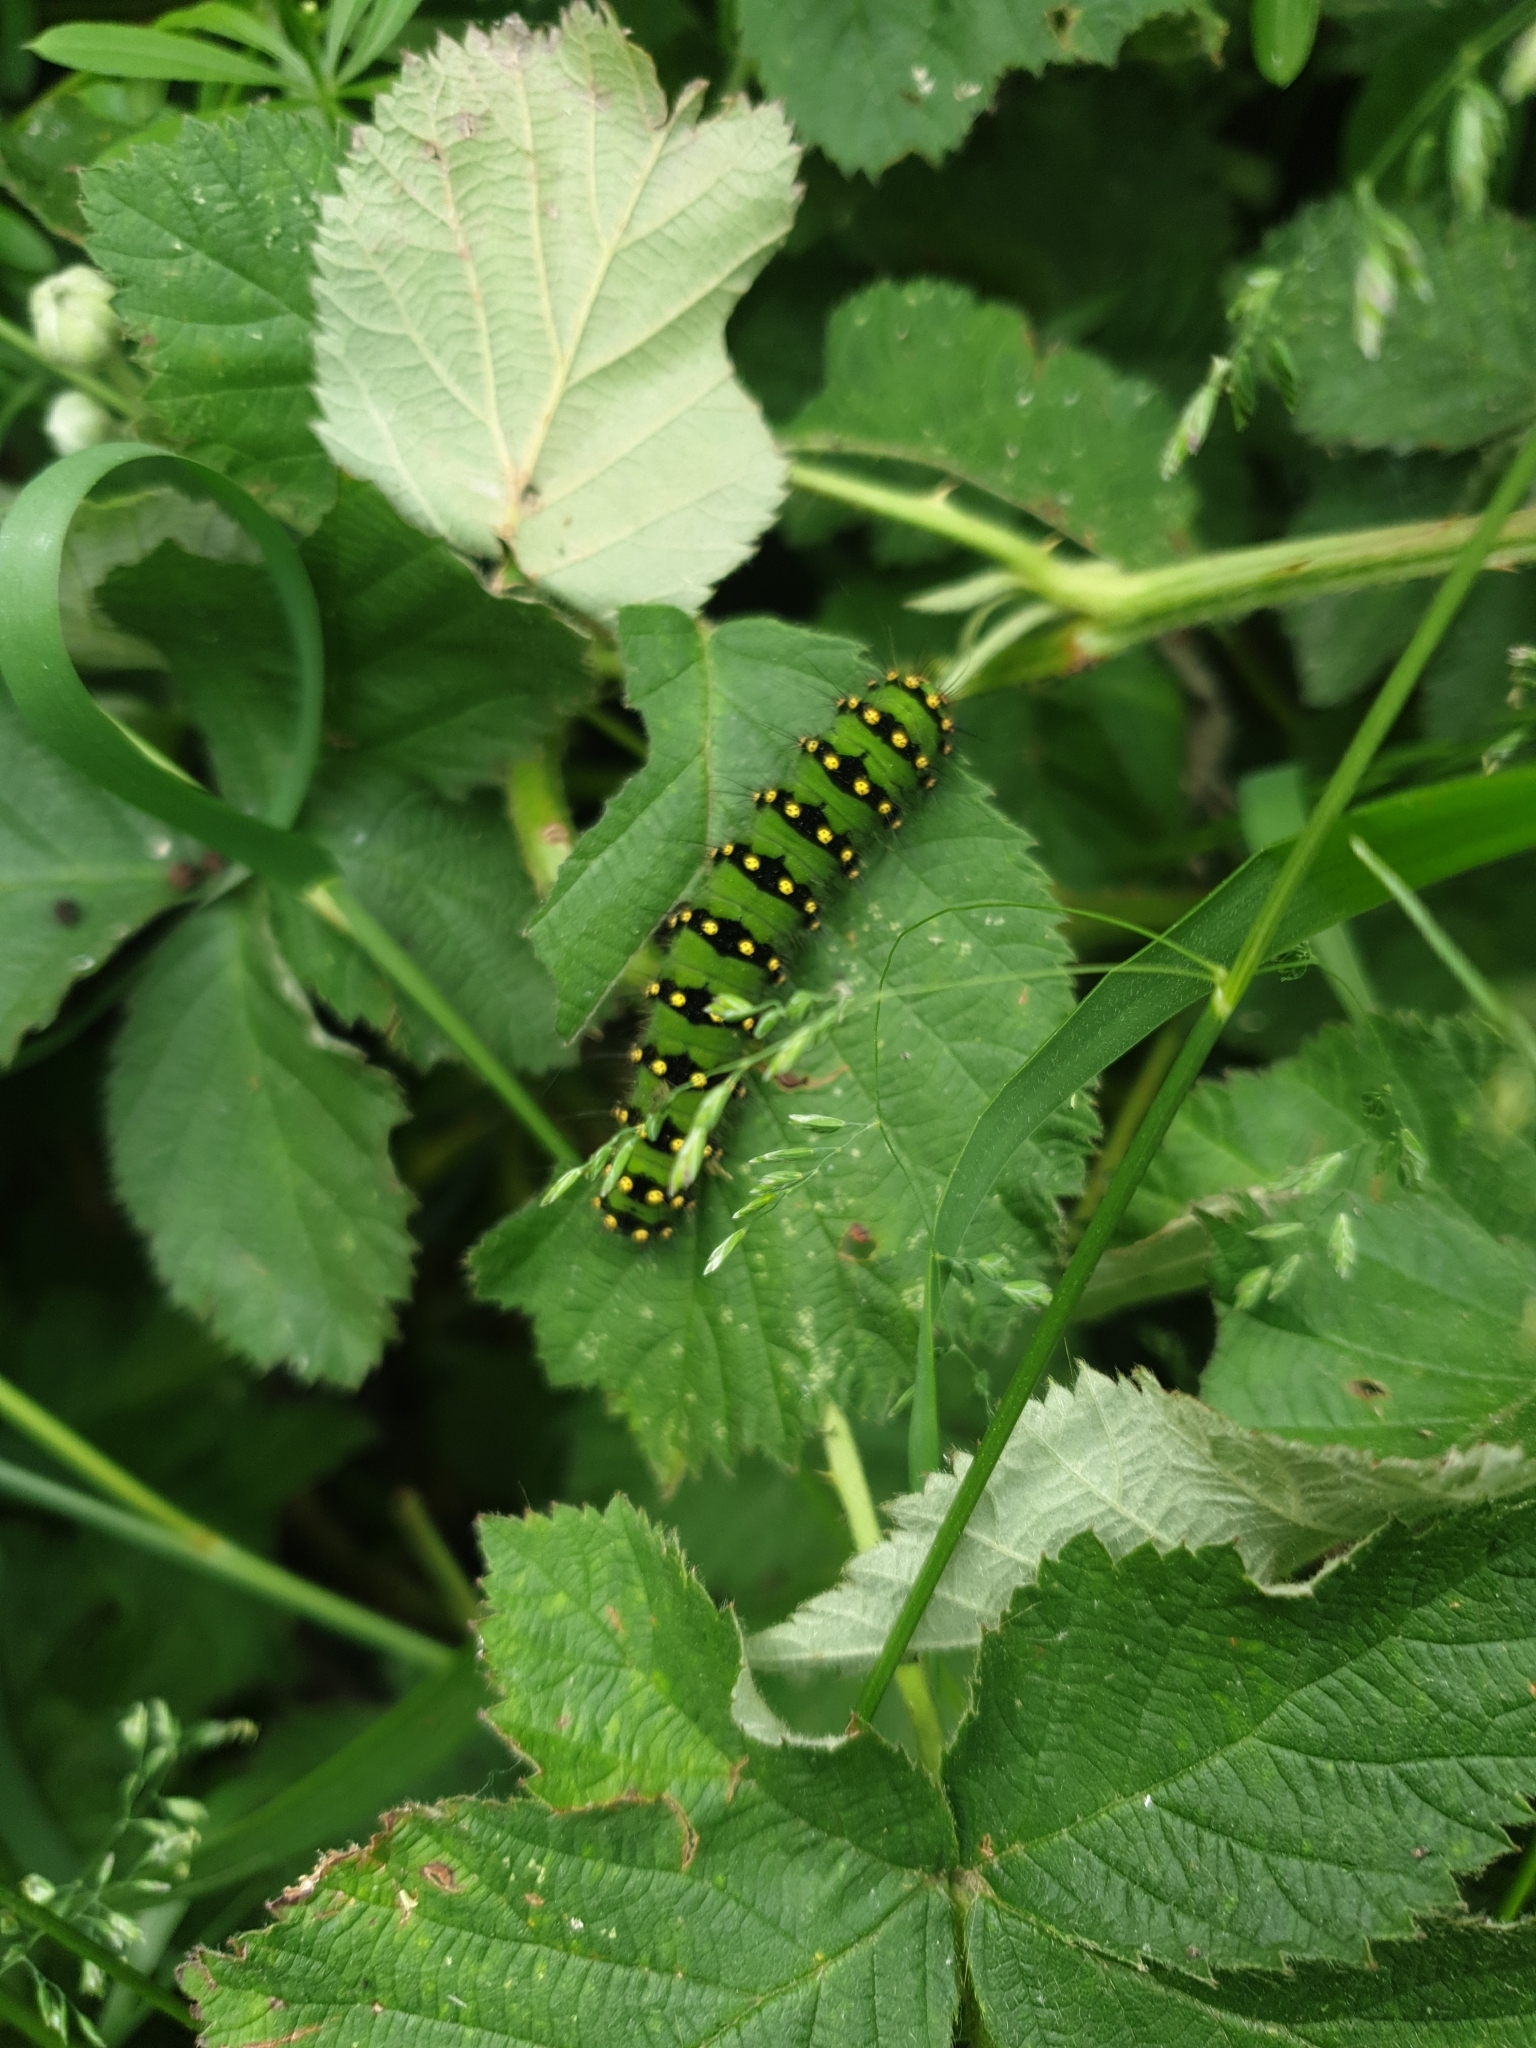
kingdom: Animalia
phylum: Arthropoda
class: Insecta
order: Lepidoptera
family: Saturniidae
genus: Saturnia
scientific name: Saturnia pavonia
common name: Emperor moth
